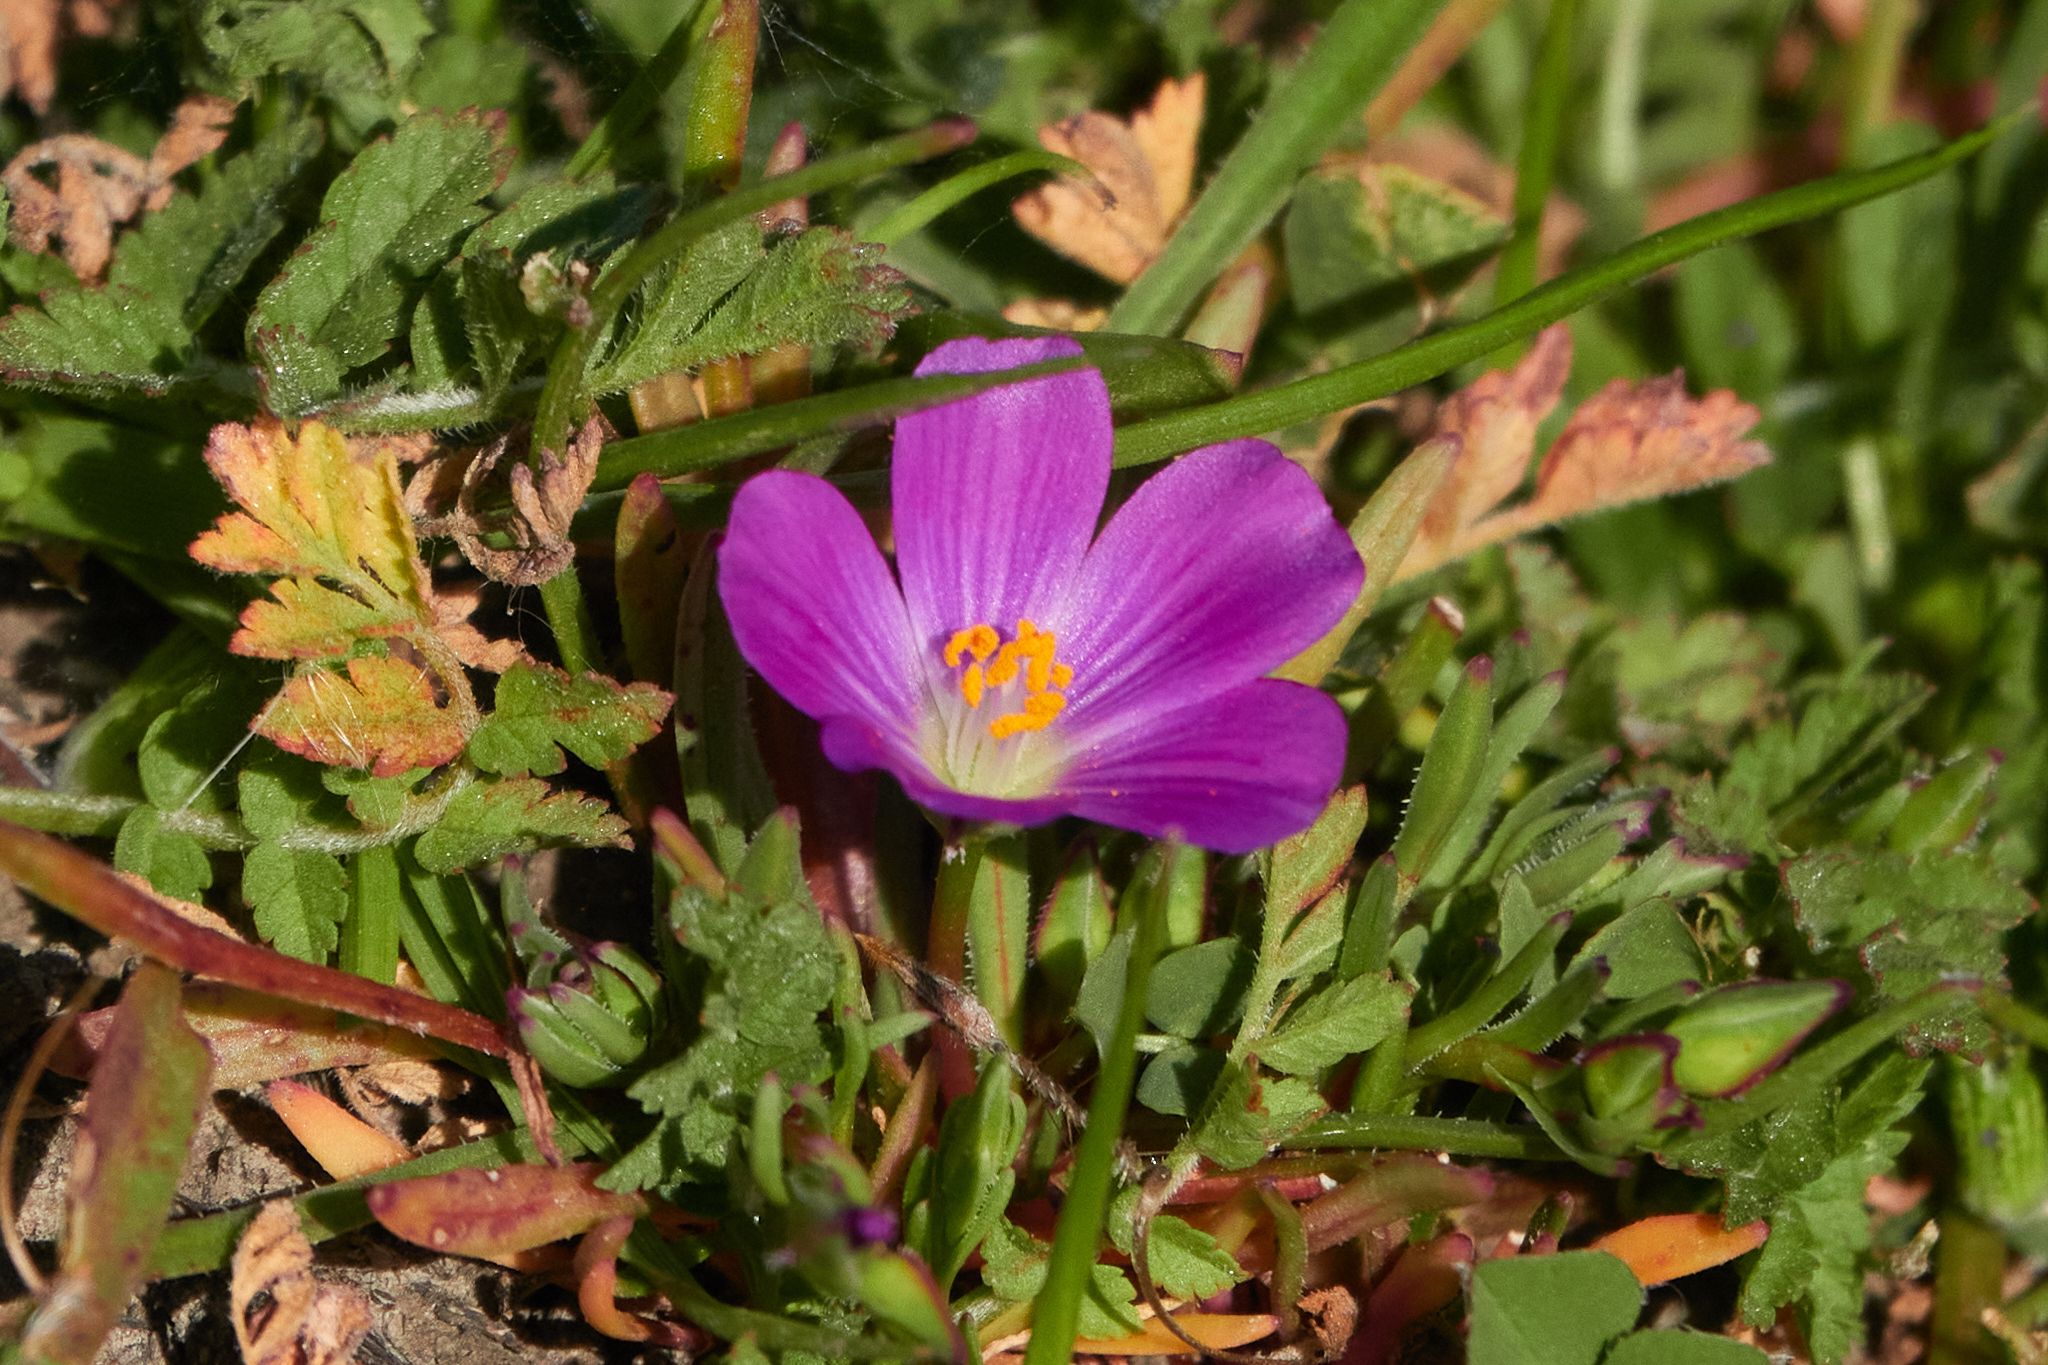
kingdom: Plantae
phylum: Tracheophyta
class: Magnoliopsida
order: Caryophyllales
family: Montiaceae
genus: Calandrinia
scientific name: Calandrinia menziesii
